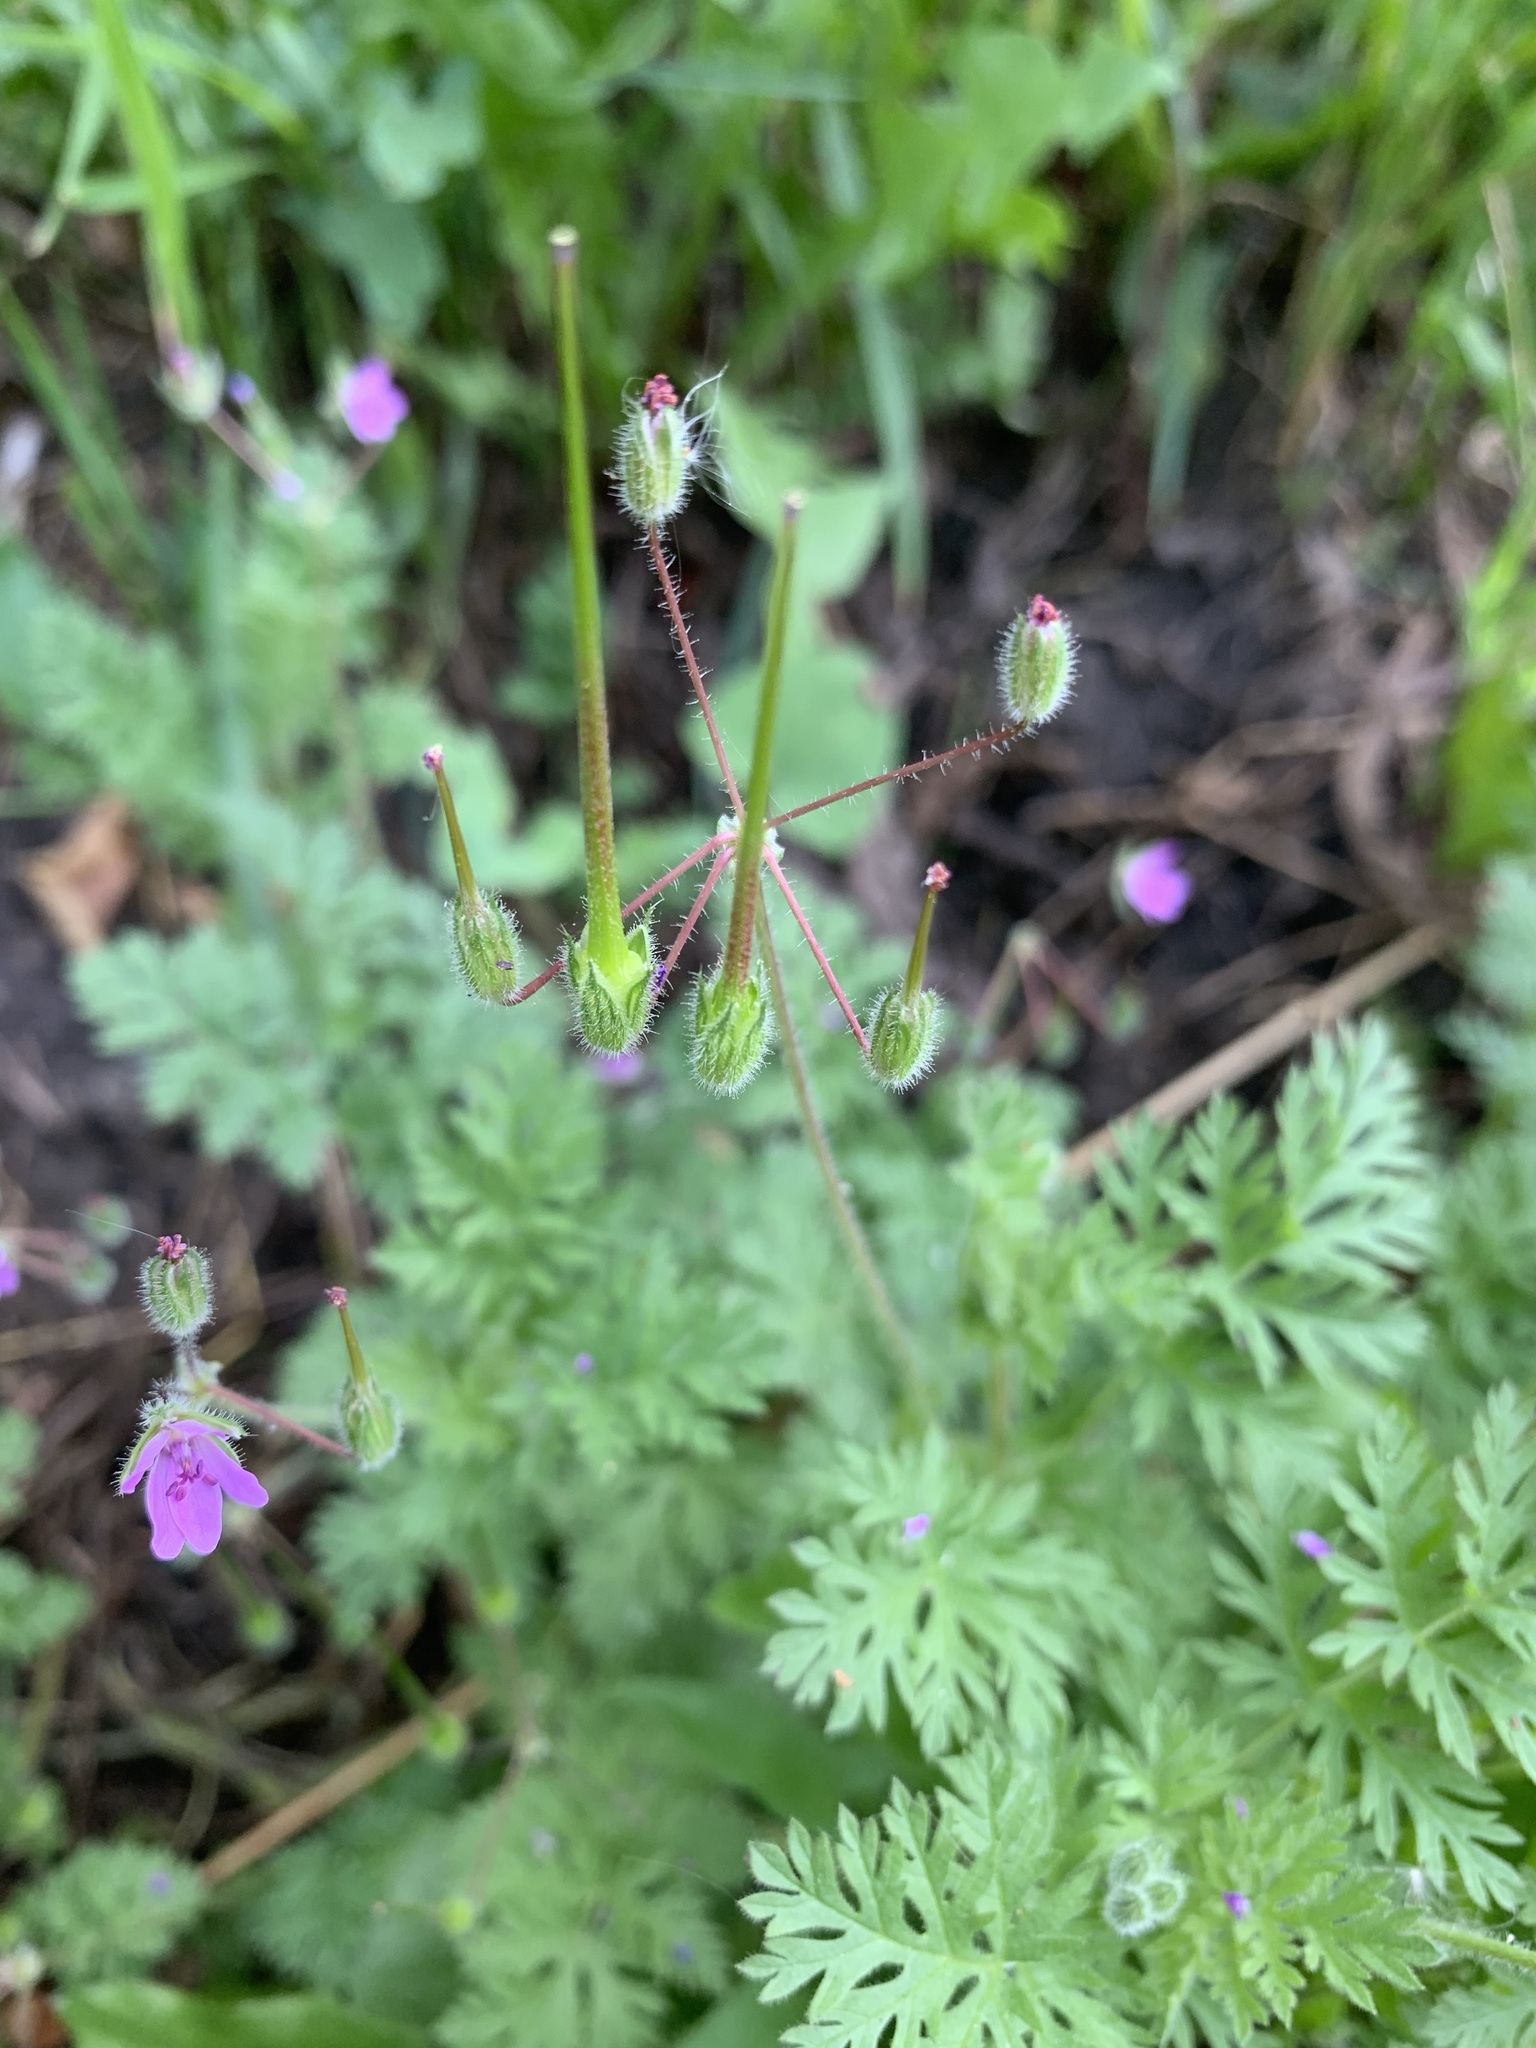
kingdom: Plantae
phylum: Tracheophyta
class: Magnoliopsida
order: Geraniales
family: Geraniaceae
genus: Erodium
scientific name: Erodium cicutarium
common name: Common stork's-bill
